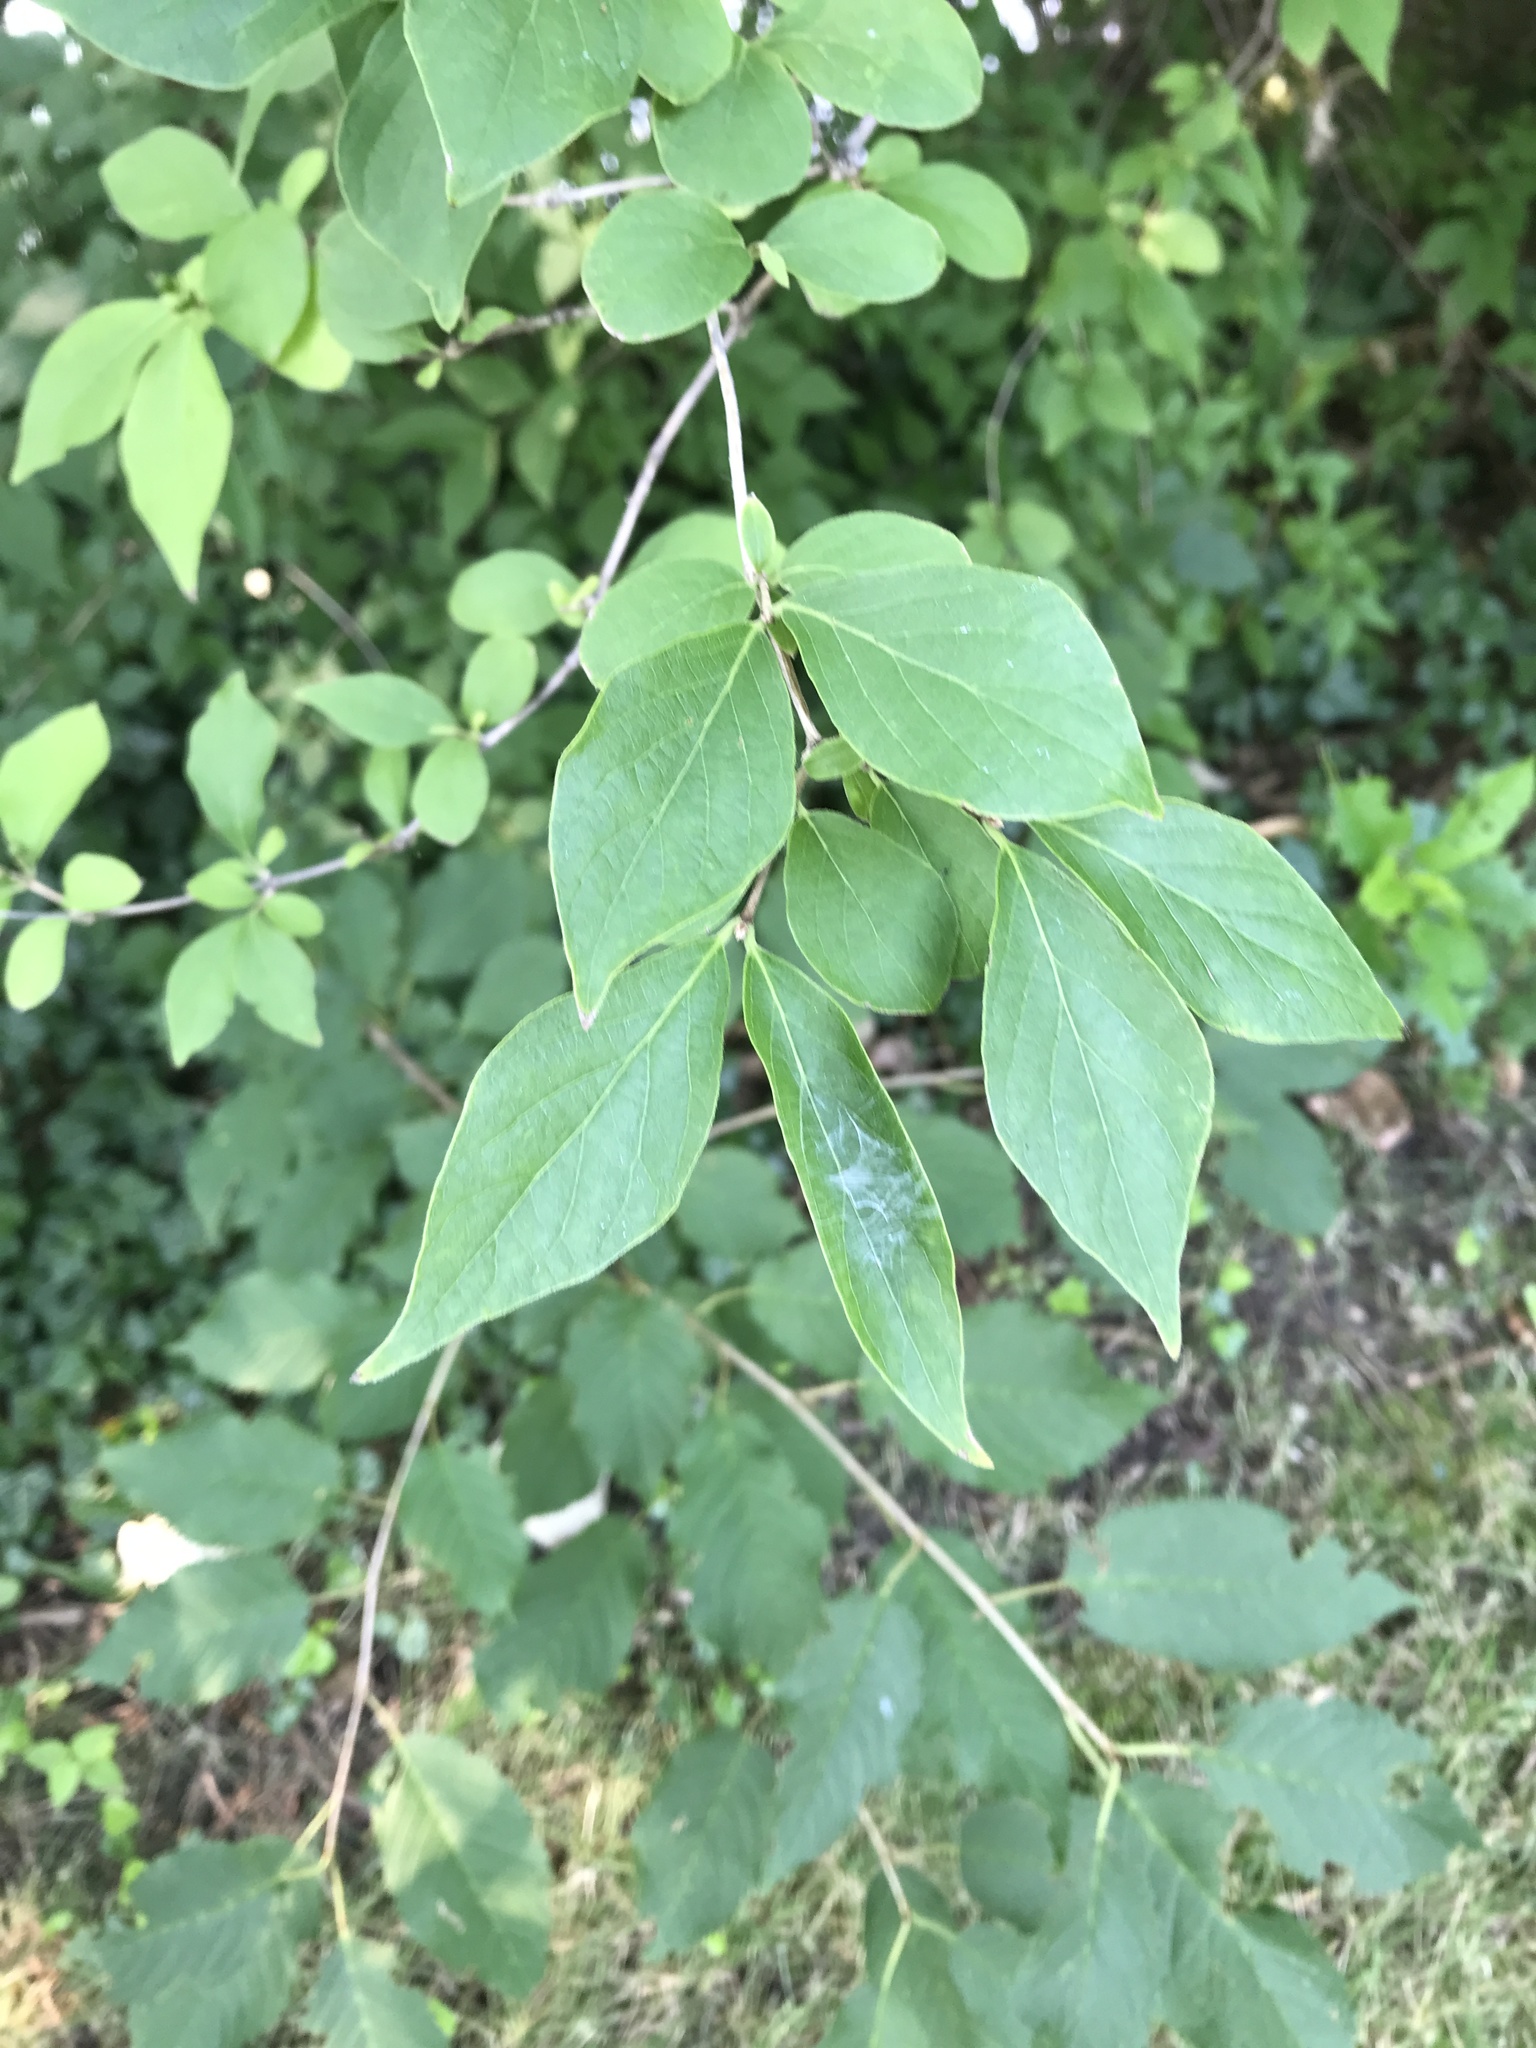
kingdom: Plantae
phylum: Tracheophyta
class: Magnoliopsida
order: Dipsacales
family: Caprifoliaceae
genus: Lonicera
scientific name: Lonicera maackii
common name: Amur honeysuckle
